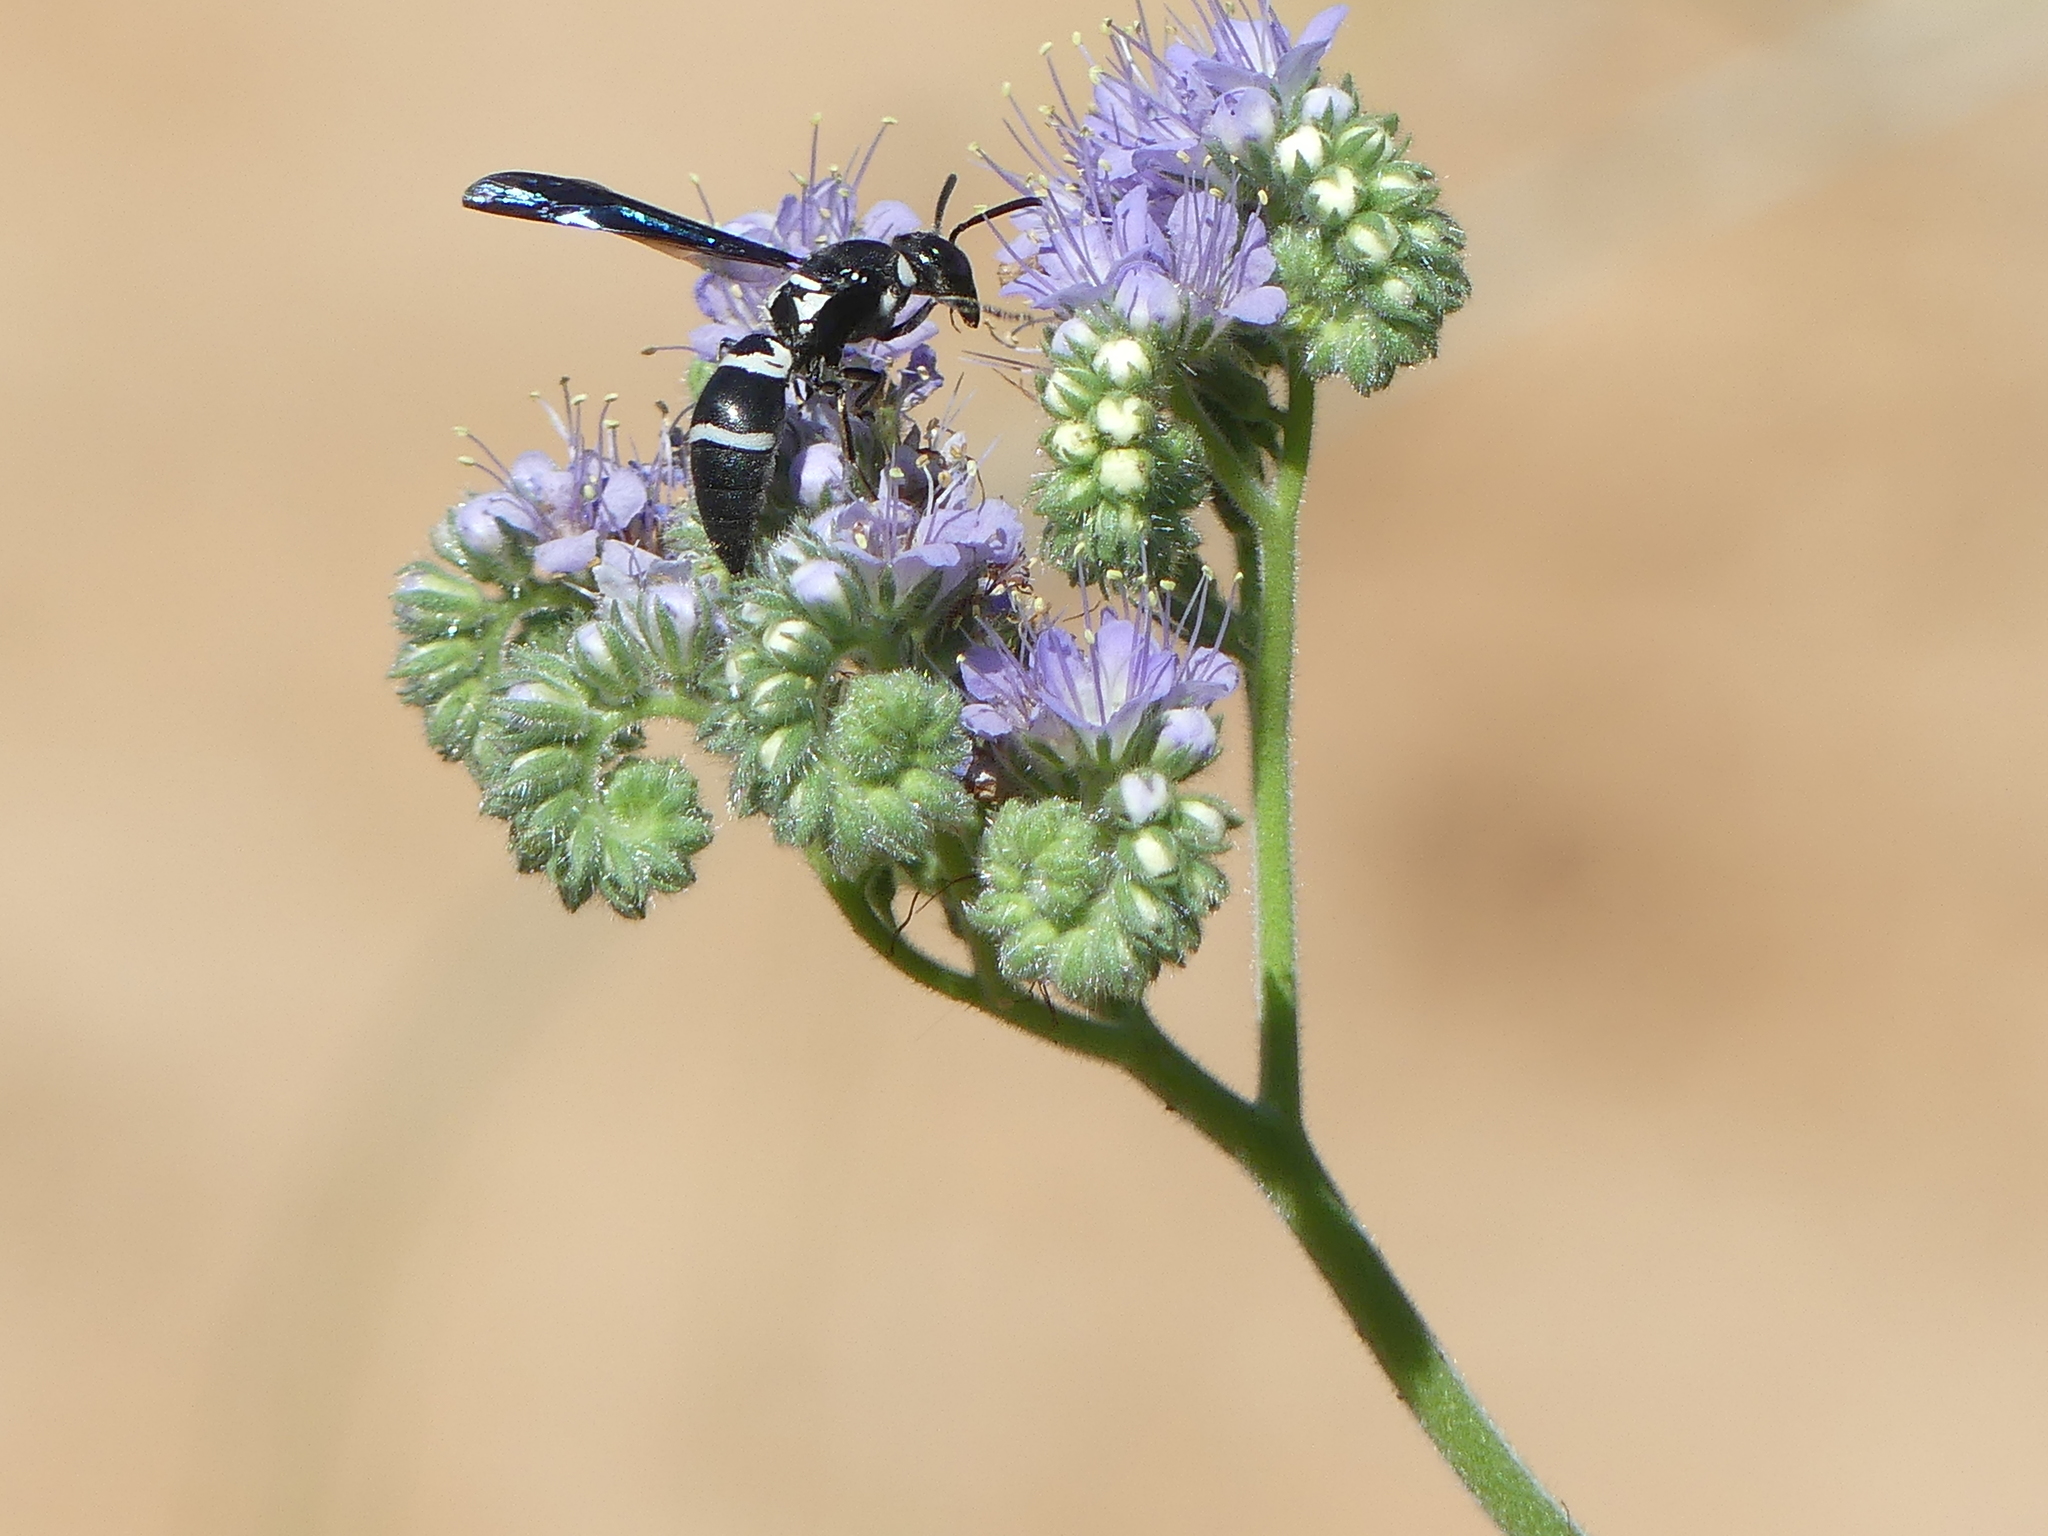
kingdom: Animalia
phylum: Arthropoda
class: Insecta
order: Hymenoptera
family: Eumenidae
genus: Pseudodynerus
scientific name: Pseudodynerus quadrisectus
